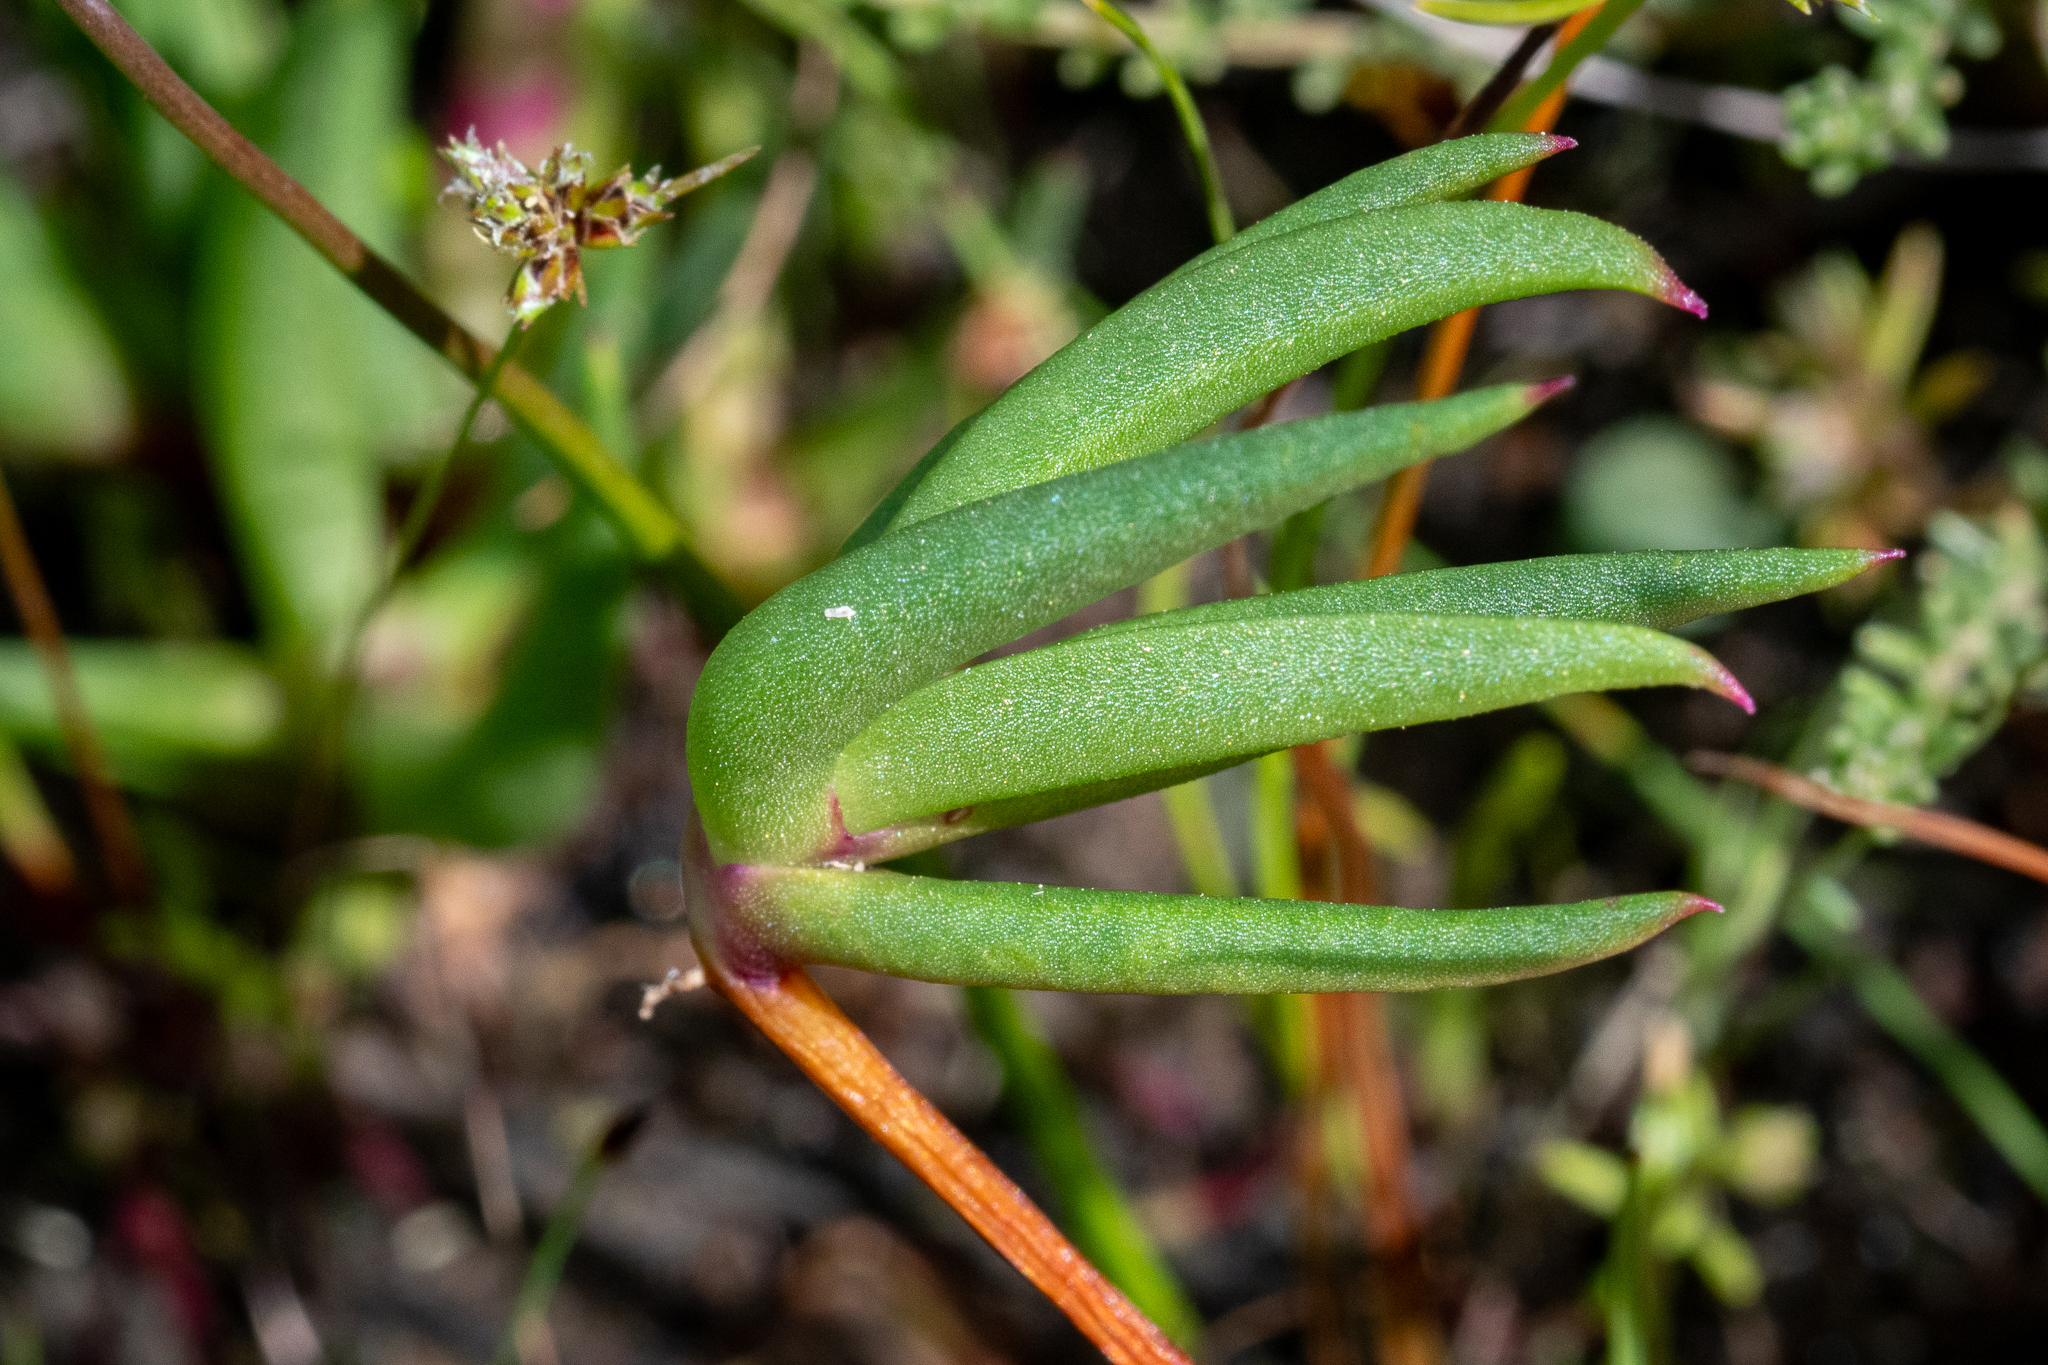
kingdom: Plantae
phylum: Tracheophyta
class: Magnoliopsida
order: Caryophyllales
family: Aizoaceae
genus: Lampranthus
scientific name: Lampranthus aduncus
